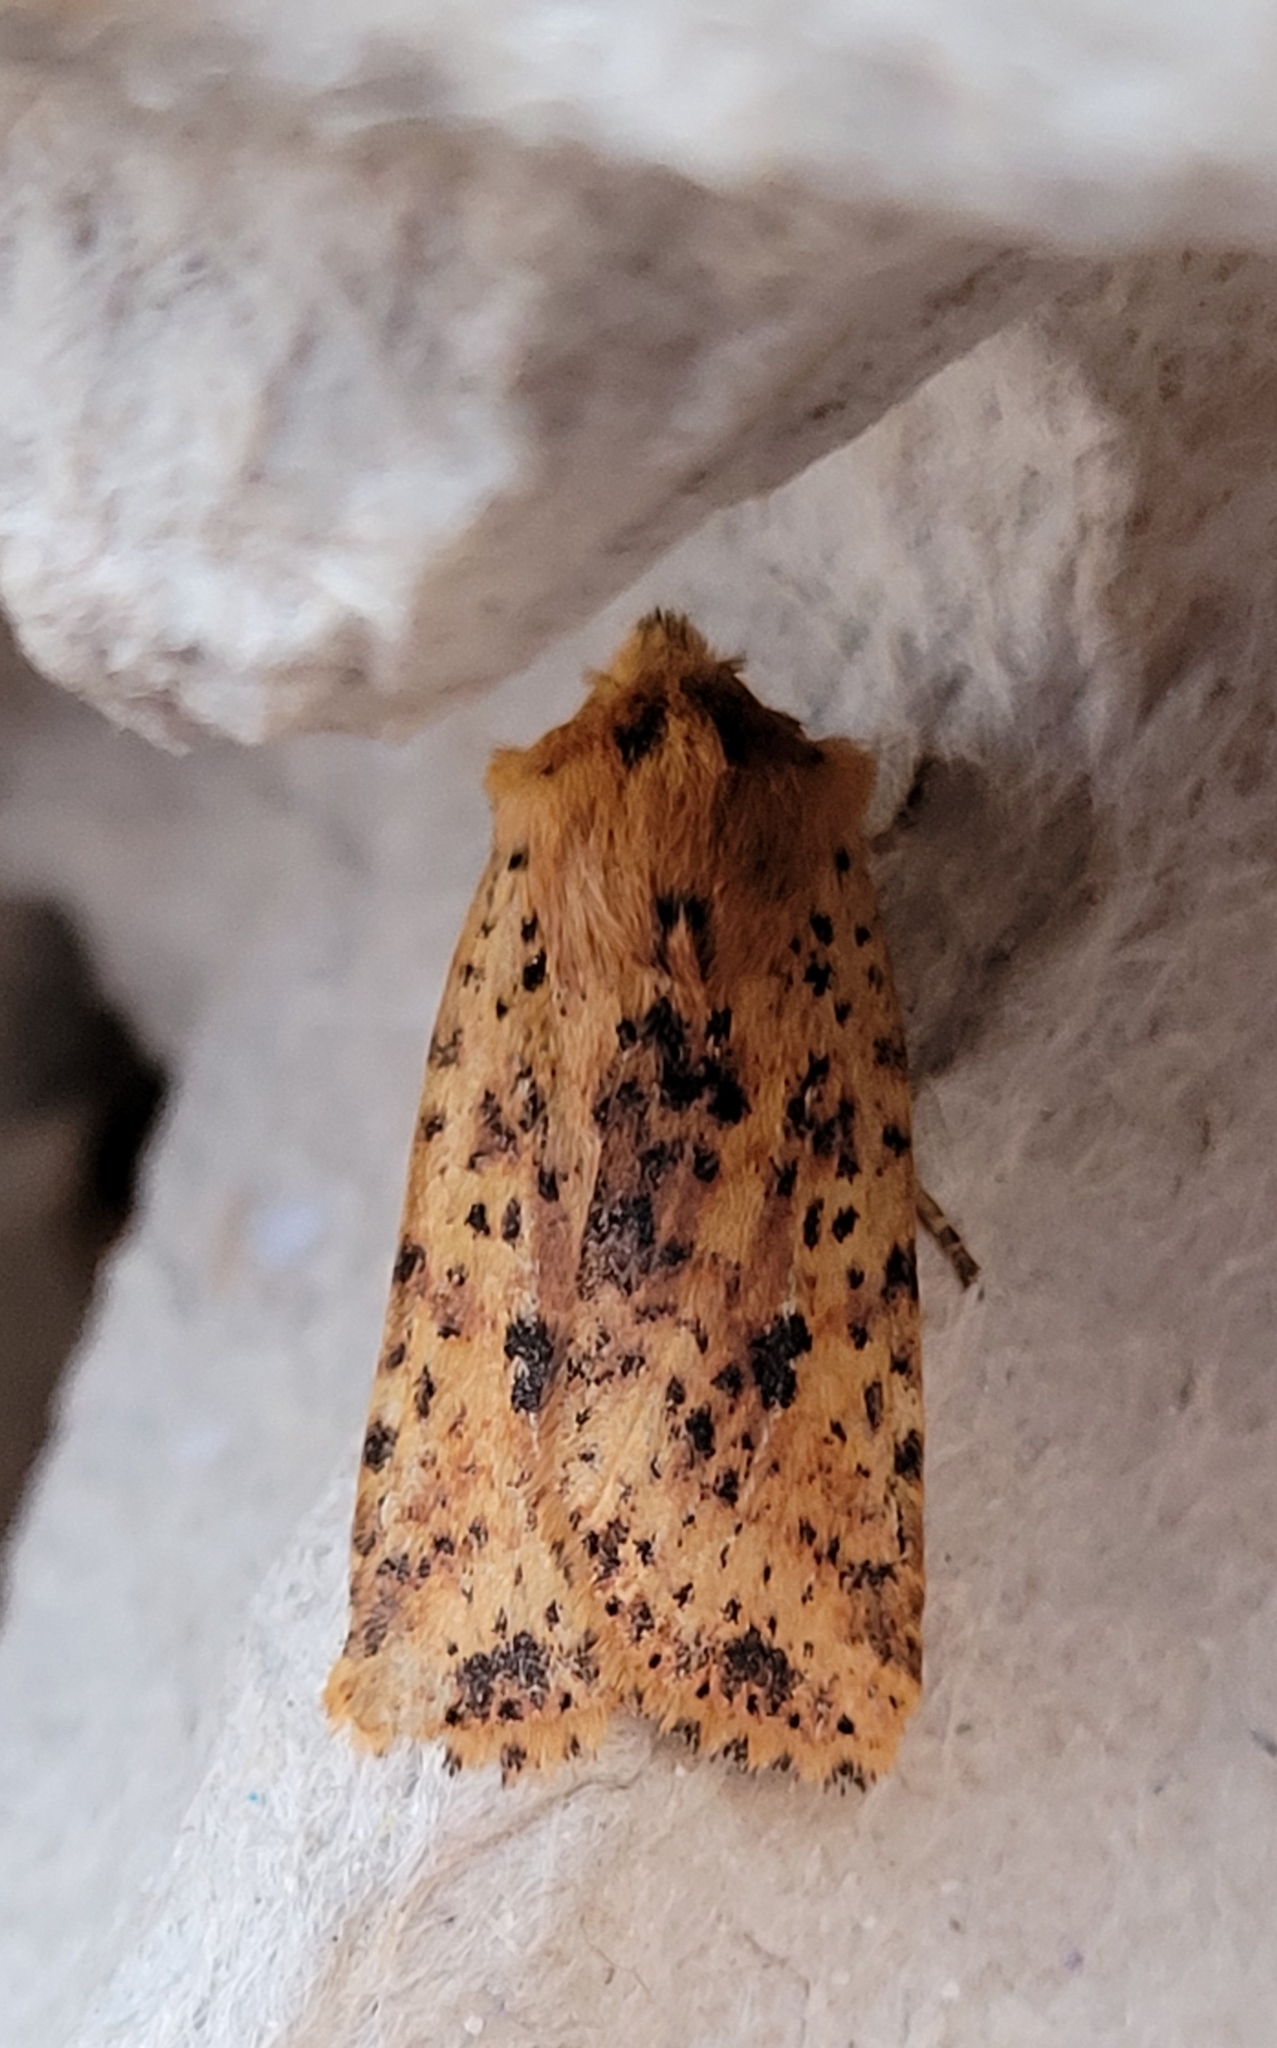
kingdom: Animalia
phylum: Arthropoda
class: Insecta
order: Lepidoptera
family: Noctuidae
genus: Conistra
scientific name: Conistra rubiginea
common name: Dotted chestnut
